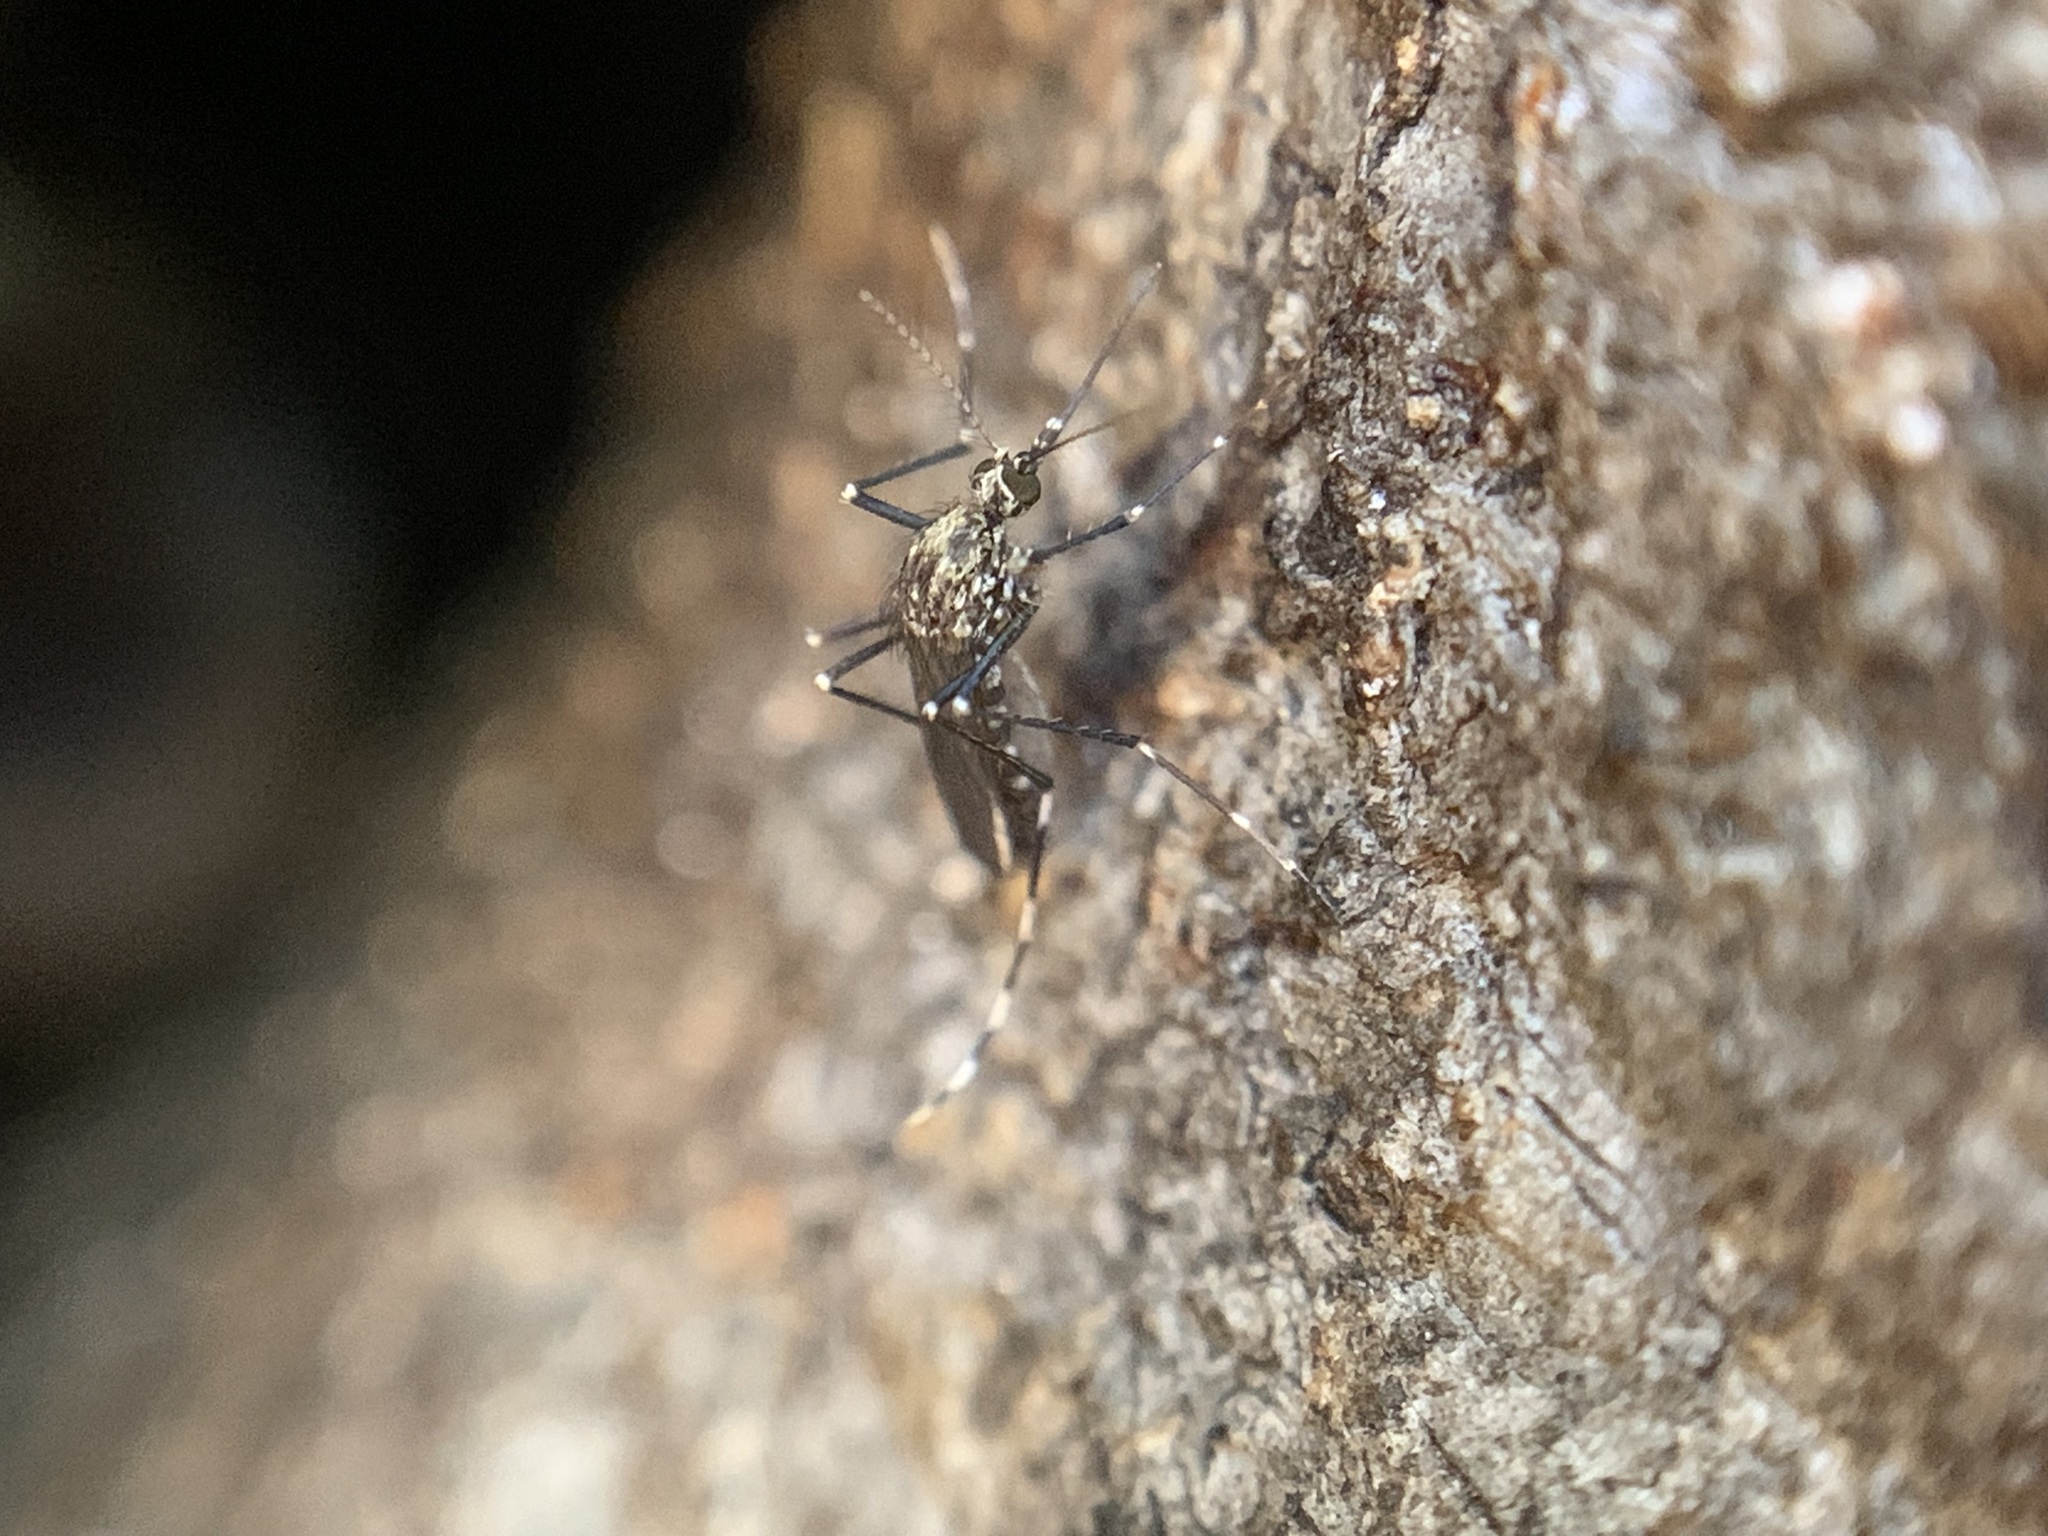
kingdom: Animalia
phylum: Arthropoda
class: Insecta
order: Diptera
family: Culicidae
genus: Aedes
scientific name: Aedes sierrensis
